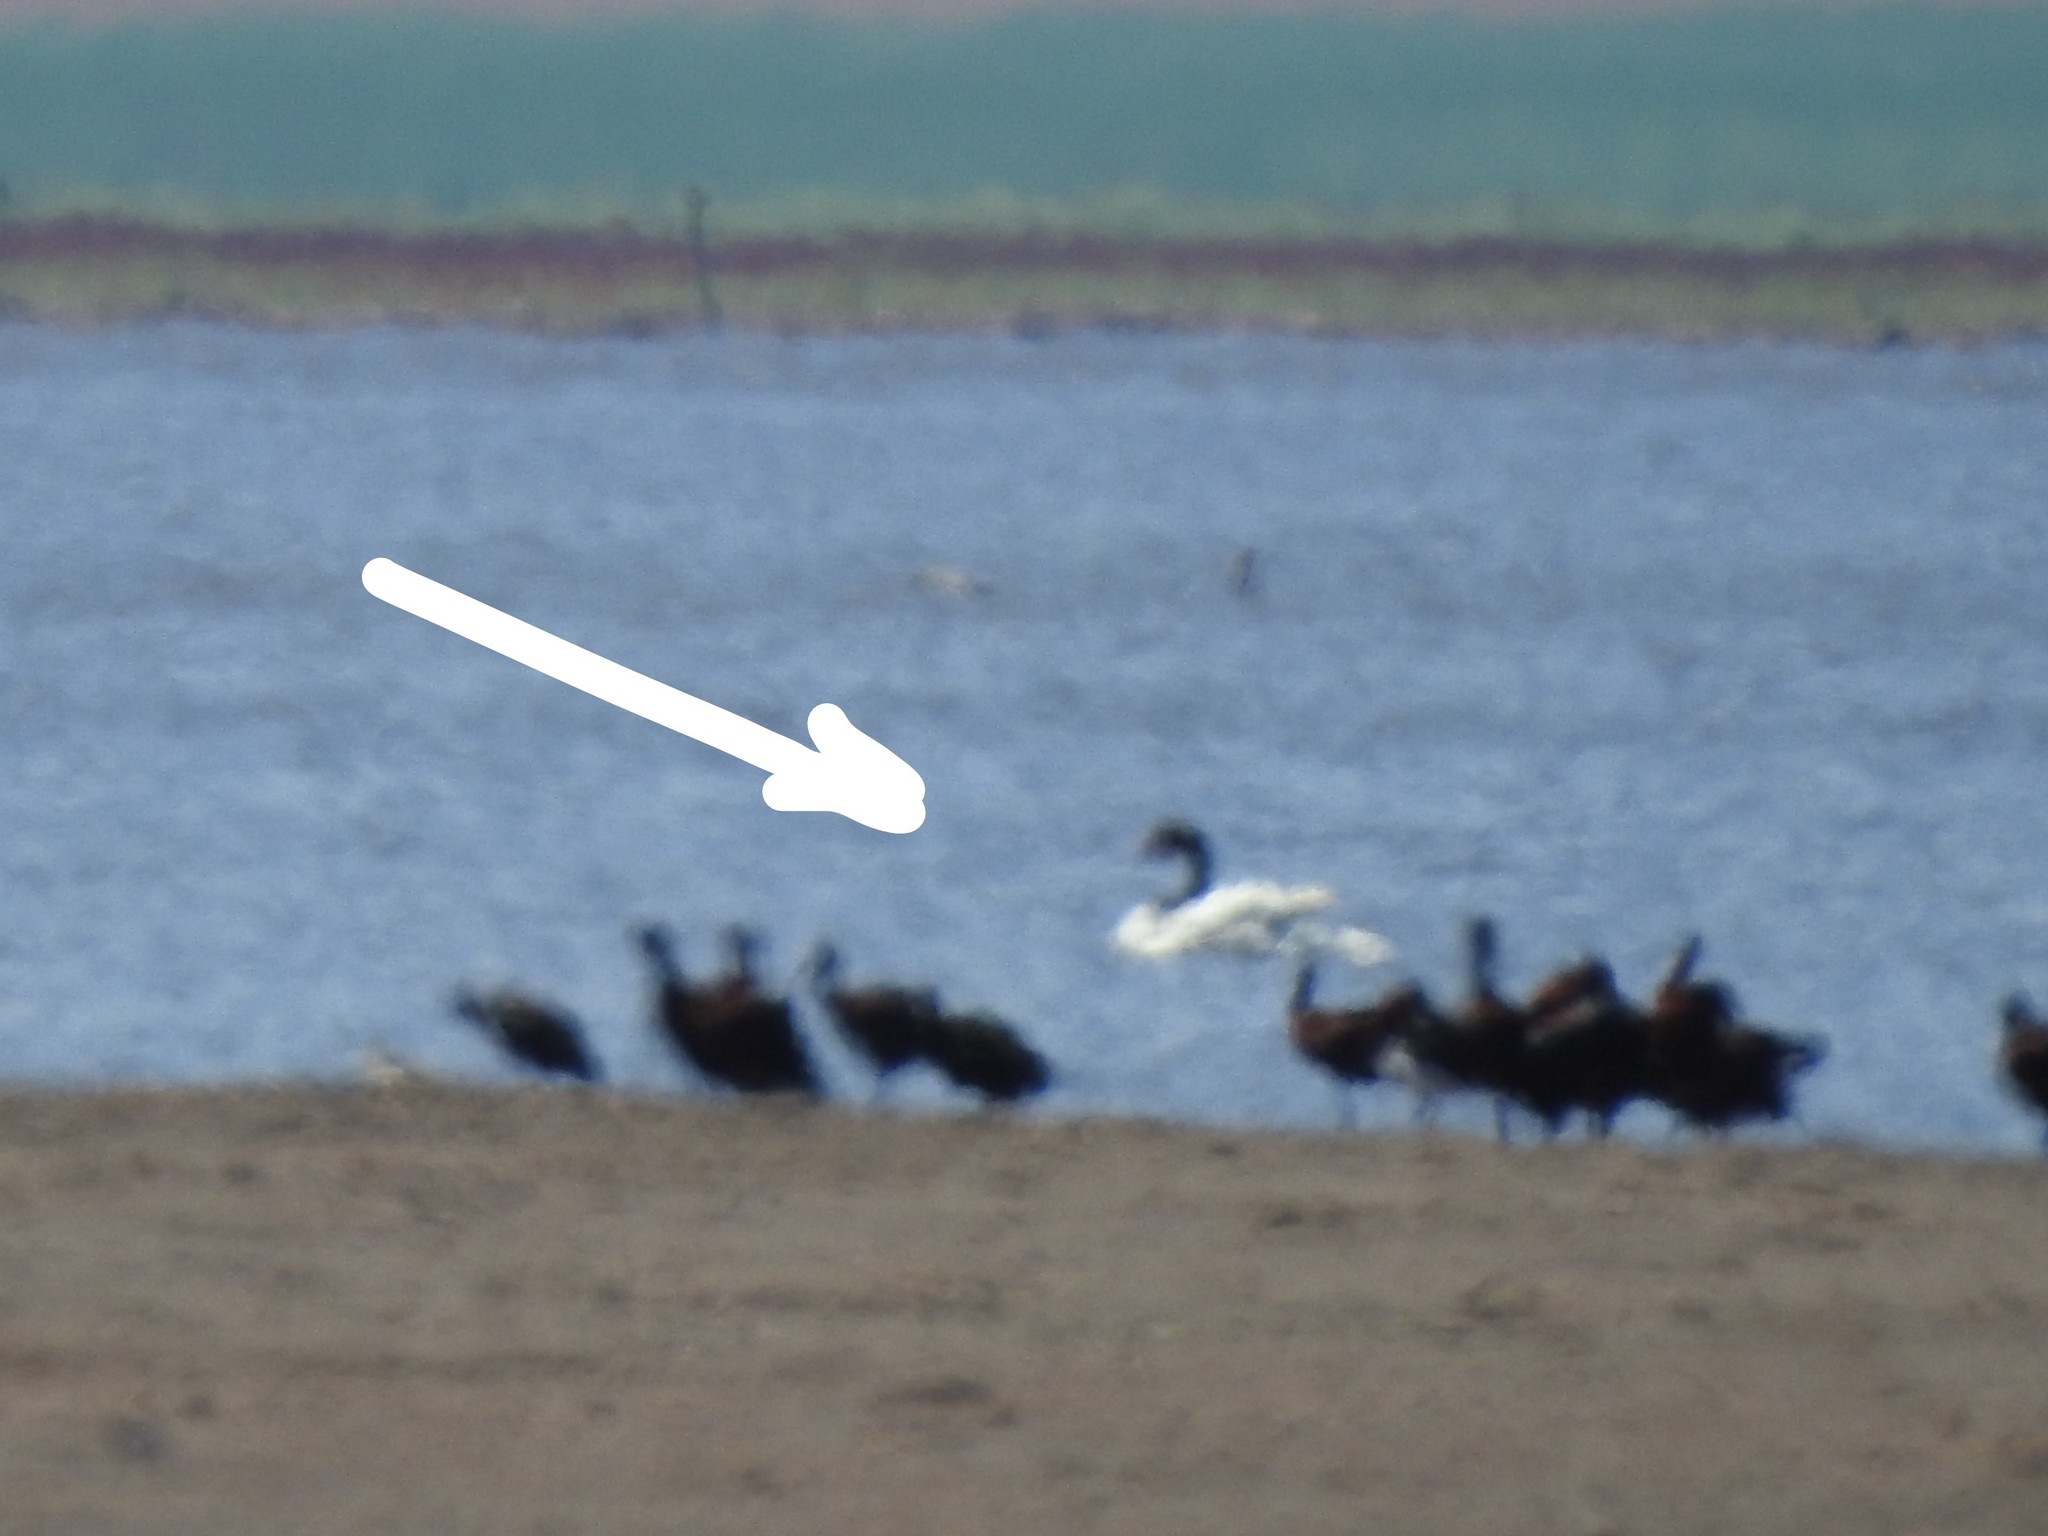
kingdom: Animalia
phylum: Chordata
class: Aves
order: Anseriformes
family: Anatidae
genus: Cygnus
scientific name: Cygnus melancoryphus
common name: Black-necked swan
